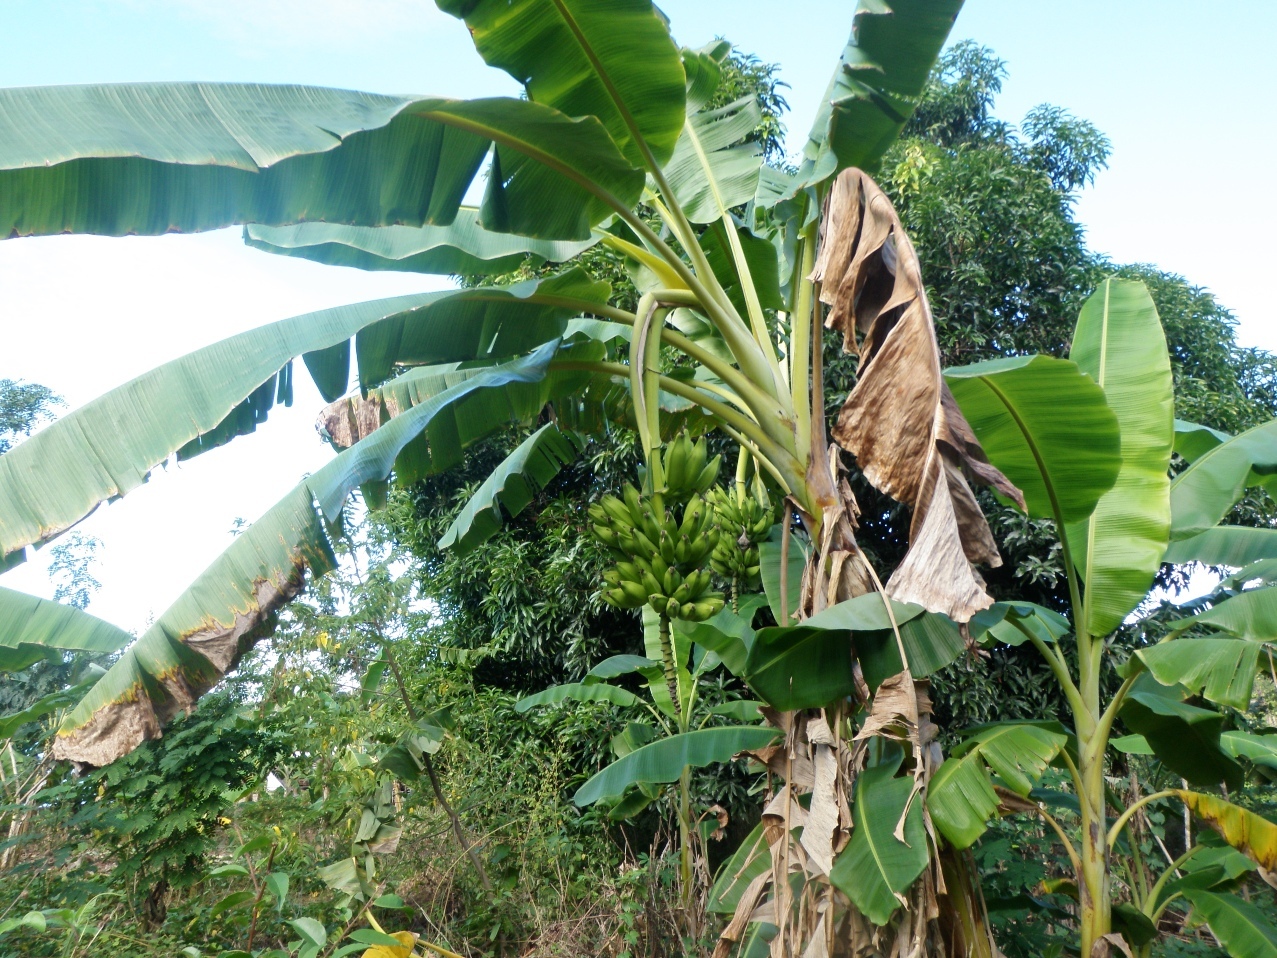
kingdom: Plantae
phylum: Tracheophyta
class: Liliopsida
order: Zingiberales
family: Musaceae
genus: Musa
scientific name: Musa paradisiaca
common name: French plantain
